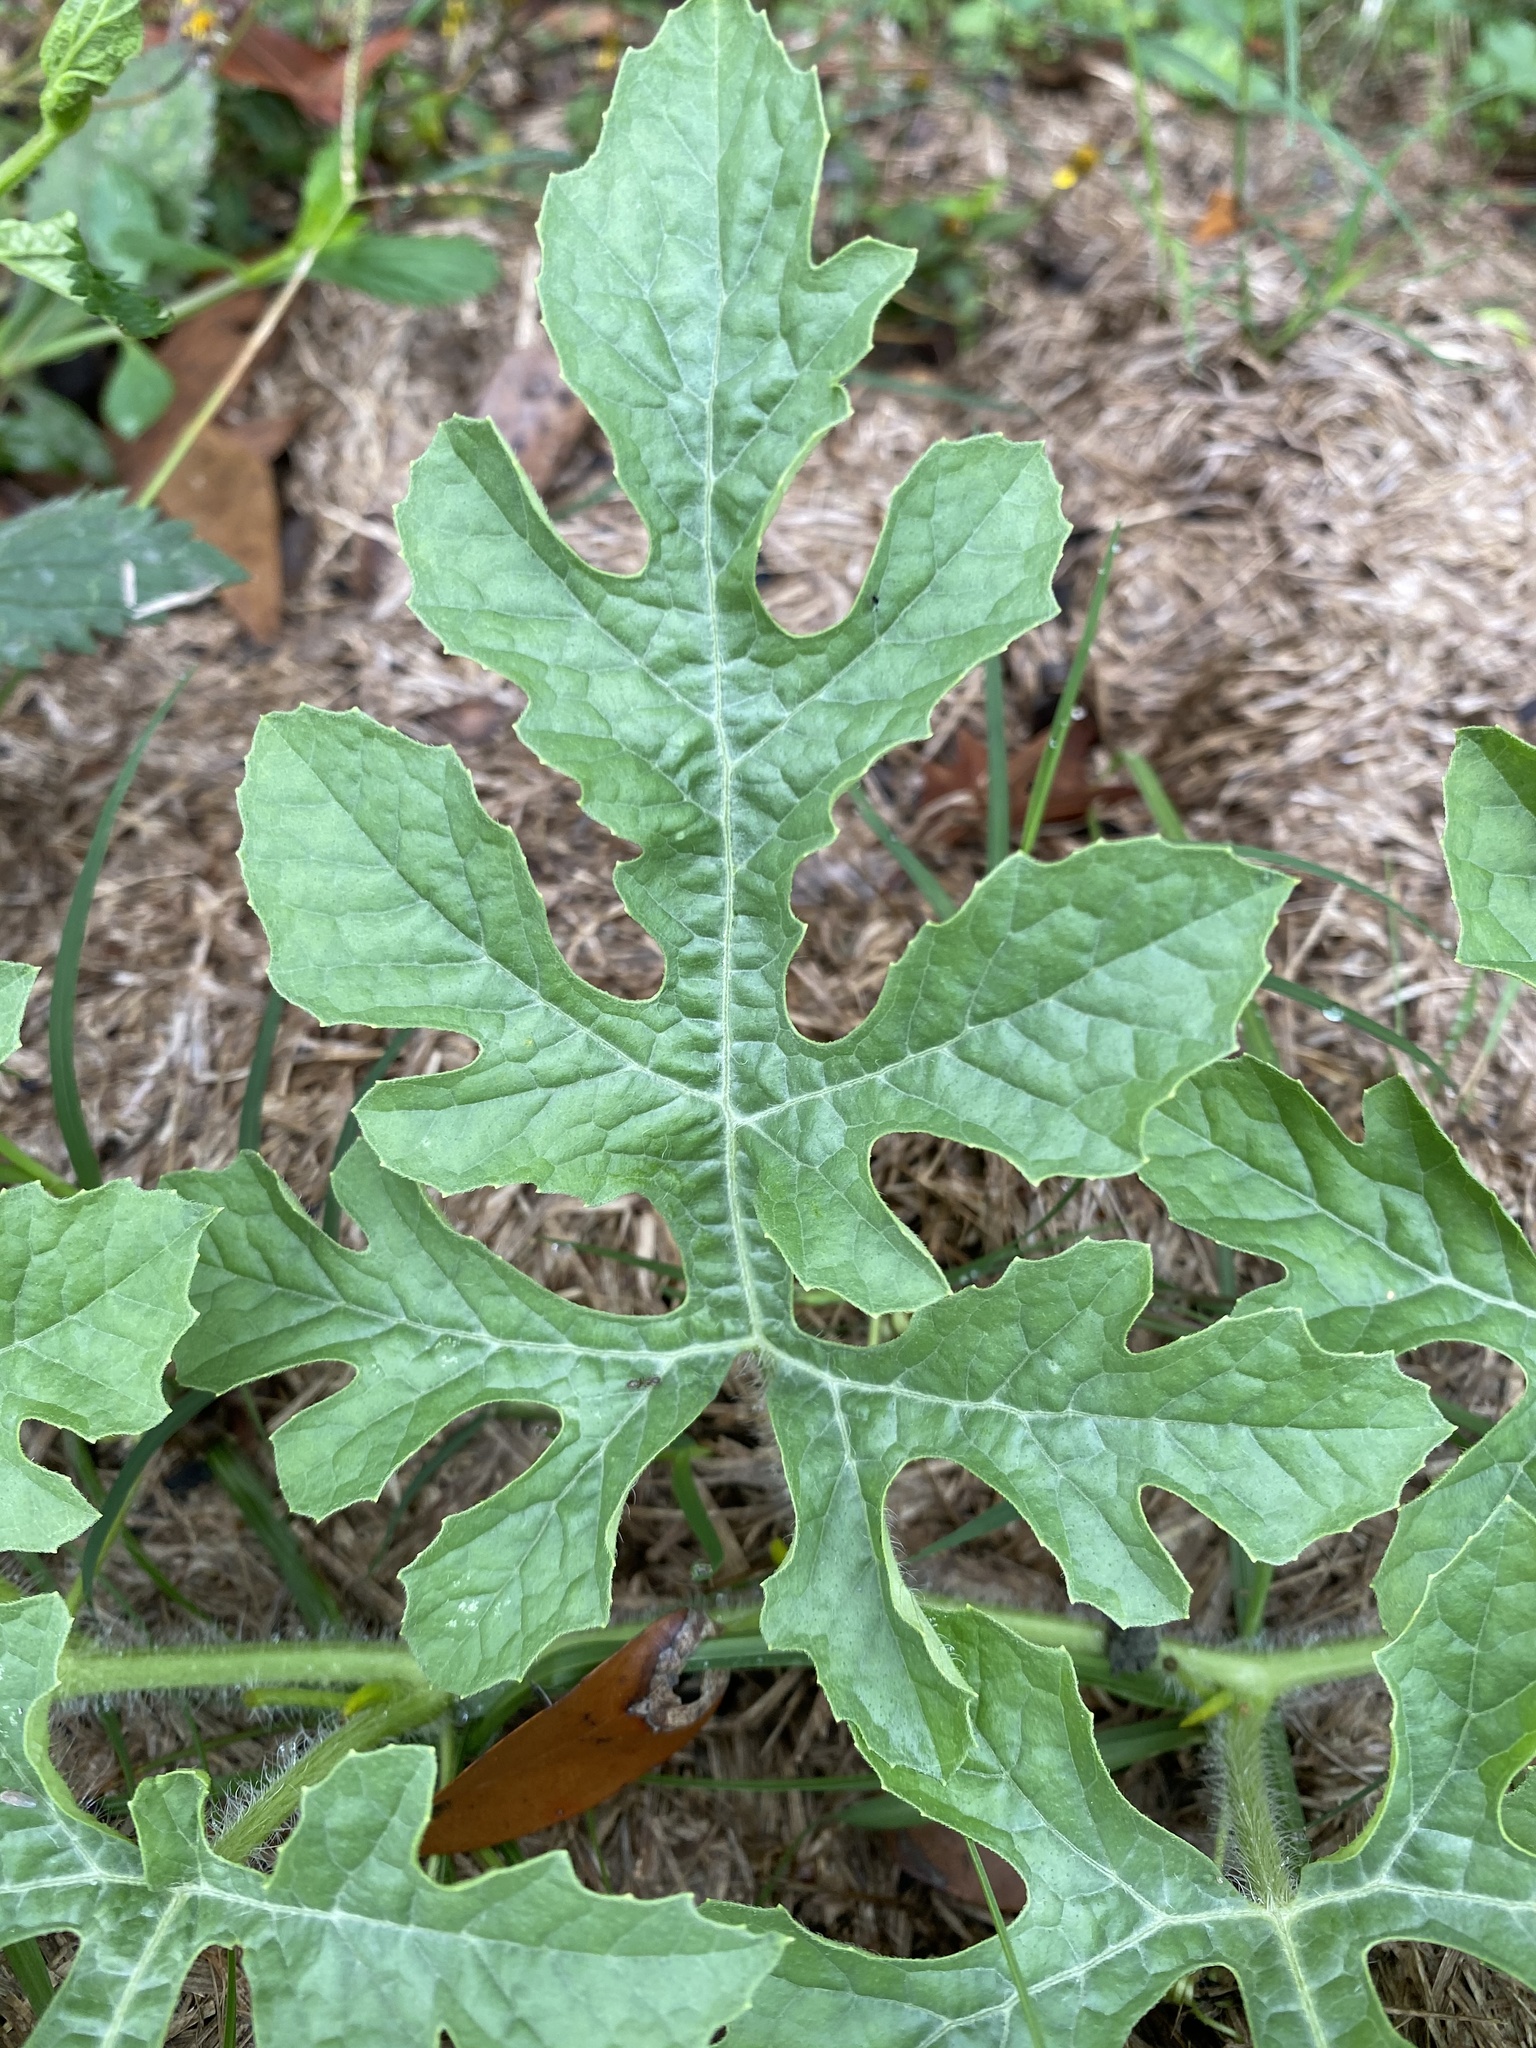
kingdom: Plantae
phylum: Tracheophyta
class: Magnoliopsida
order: Cucurbitales
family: Cucurbitaceae
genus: Citrullus
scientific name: Citrullus lanatus
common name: Watermelon
